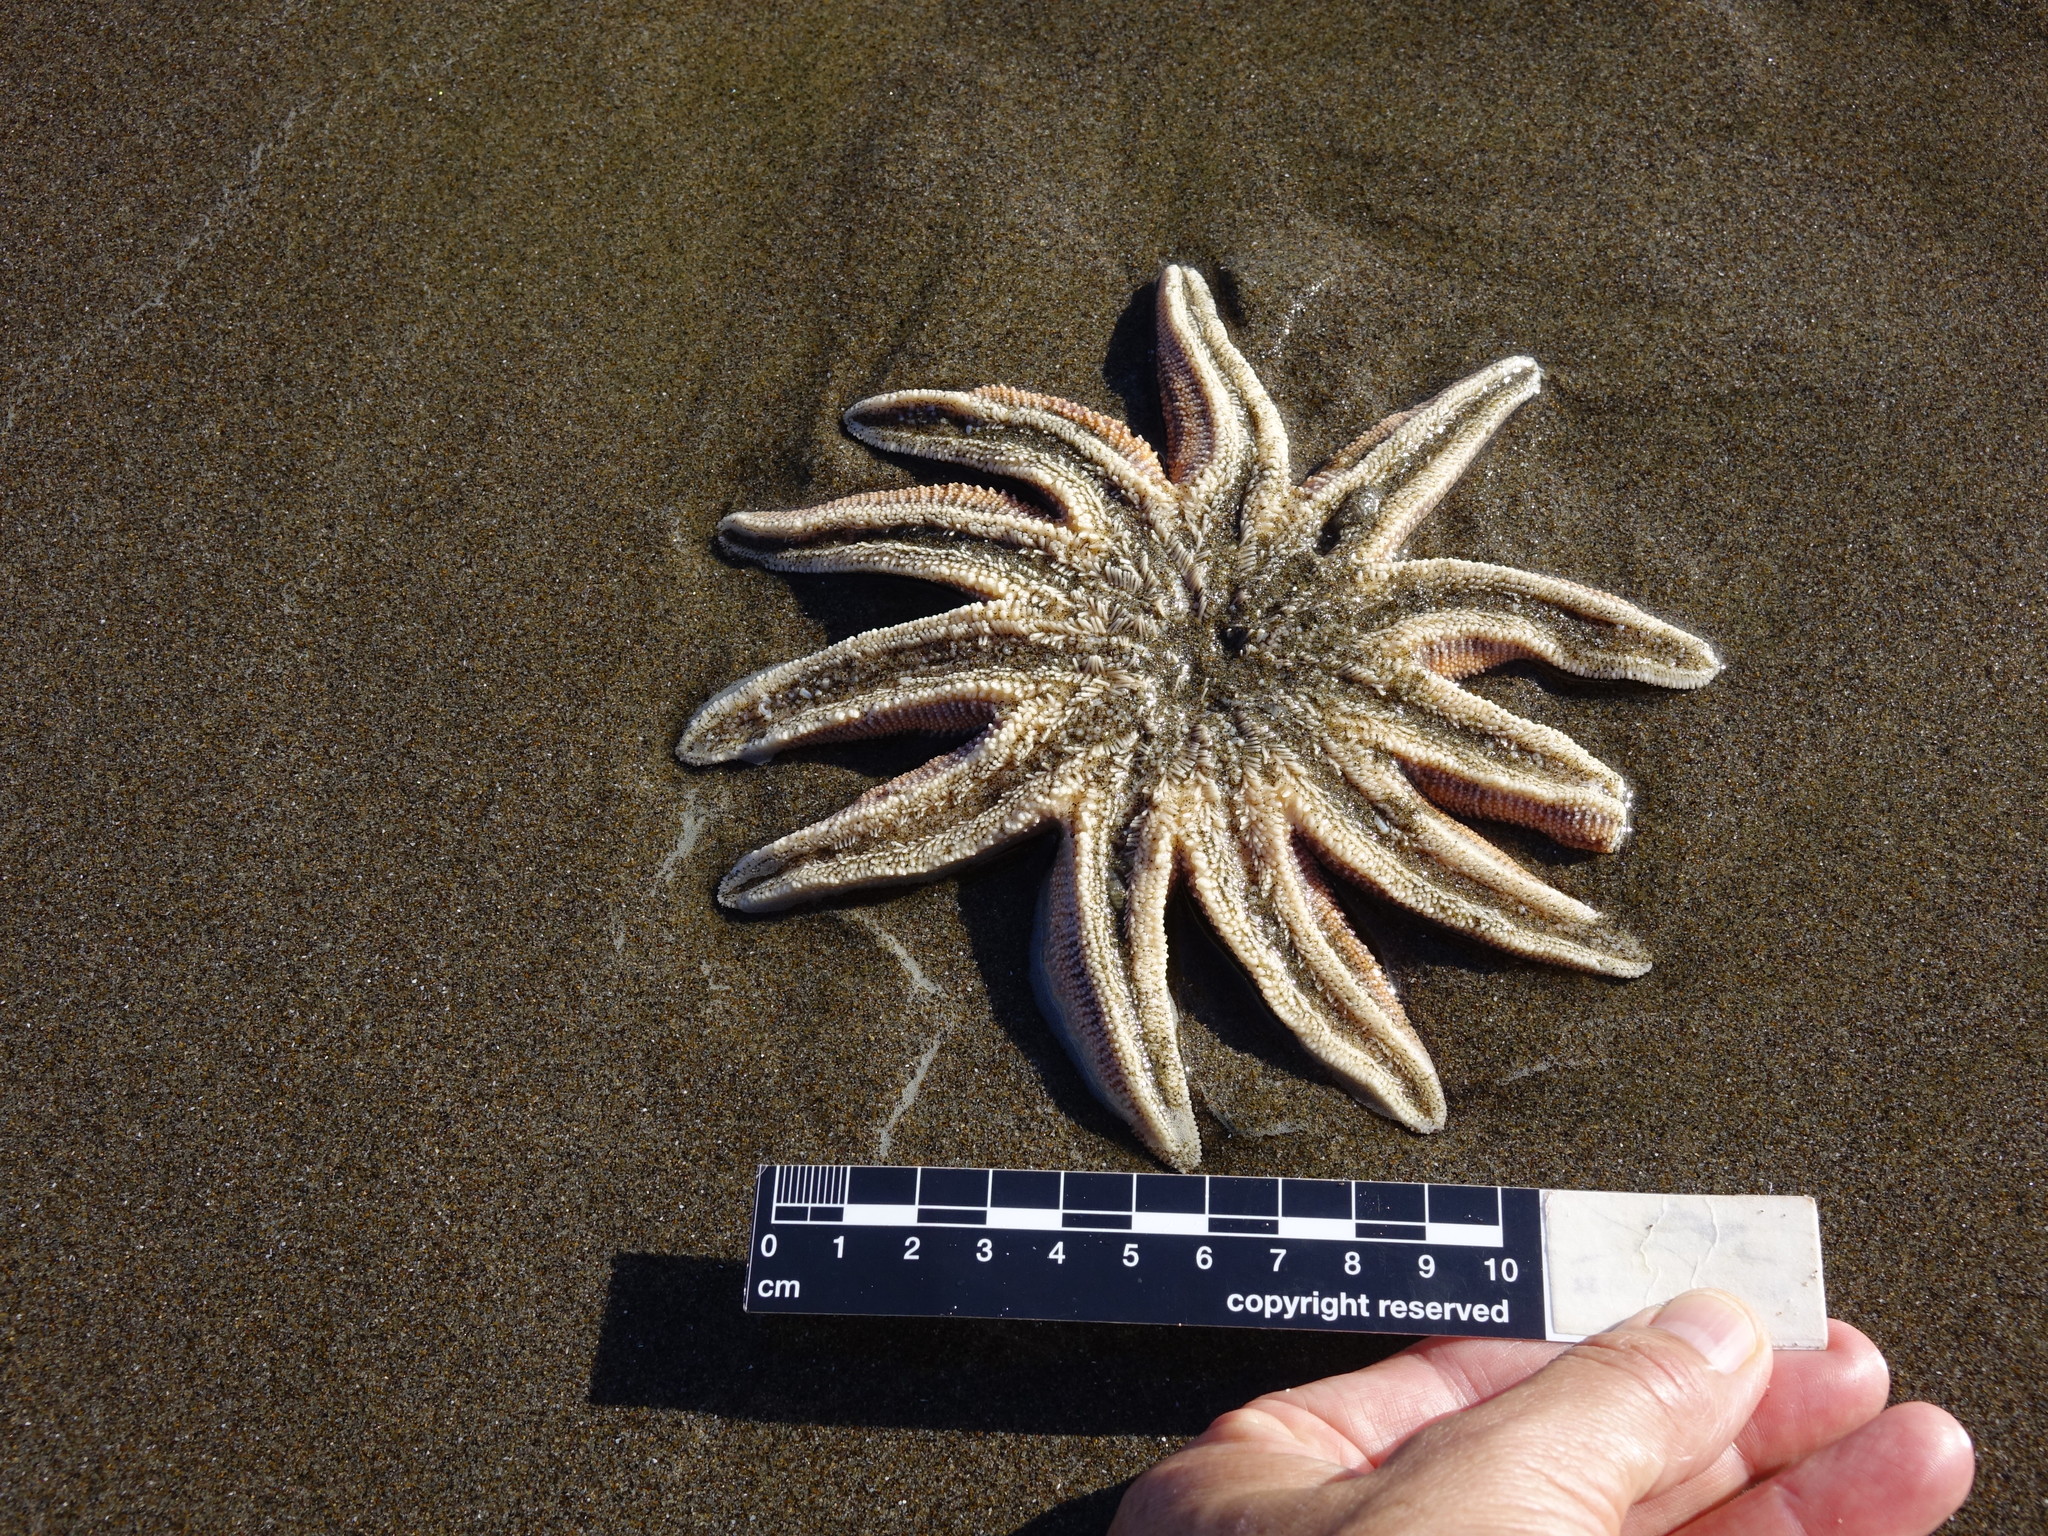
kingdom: Animalia
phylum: Echinodermata
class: Asteroidea
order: Forcipulatida
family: Stichasteridae
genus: Stichaster
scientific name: Stichaster australis
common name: Reef starfish
